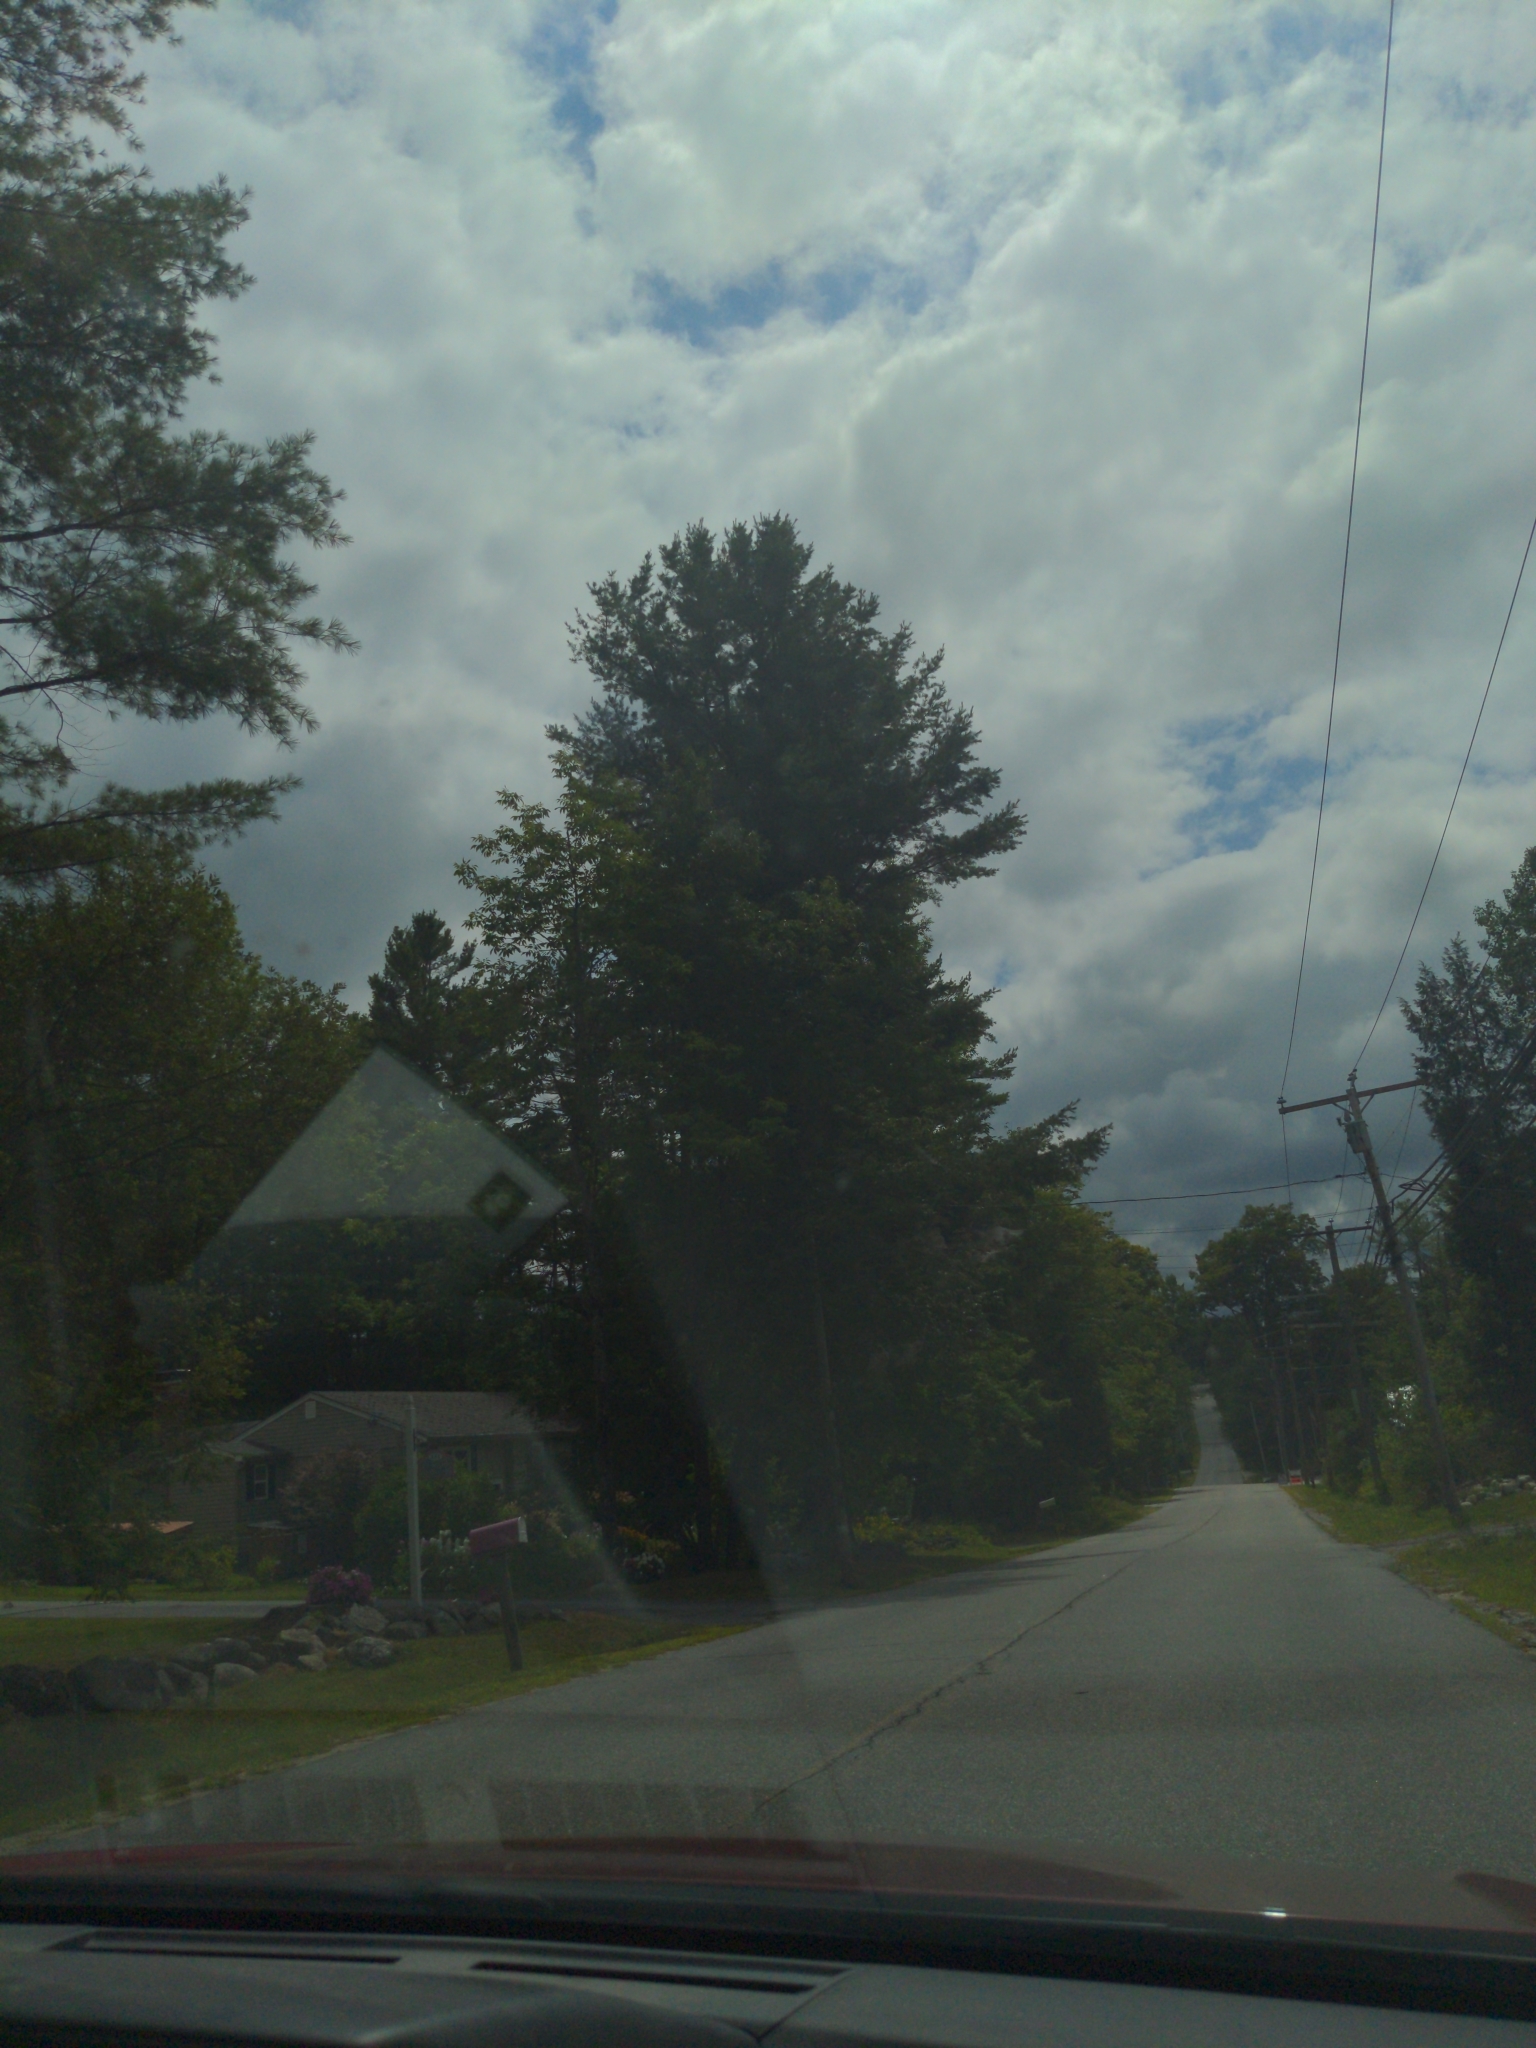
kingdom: Plantae
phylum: Tracheophyta
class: Pinopsida
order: Pinales
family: Pinaceae
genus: Pinus
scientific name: Pinus strobus
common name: Weymouth pine
